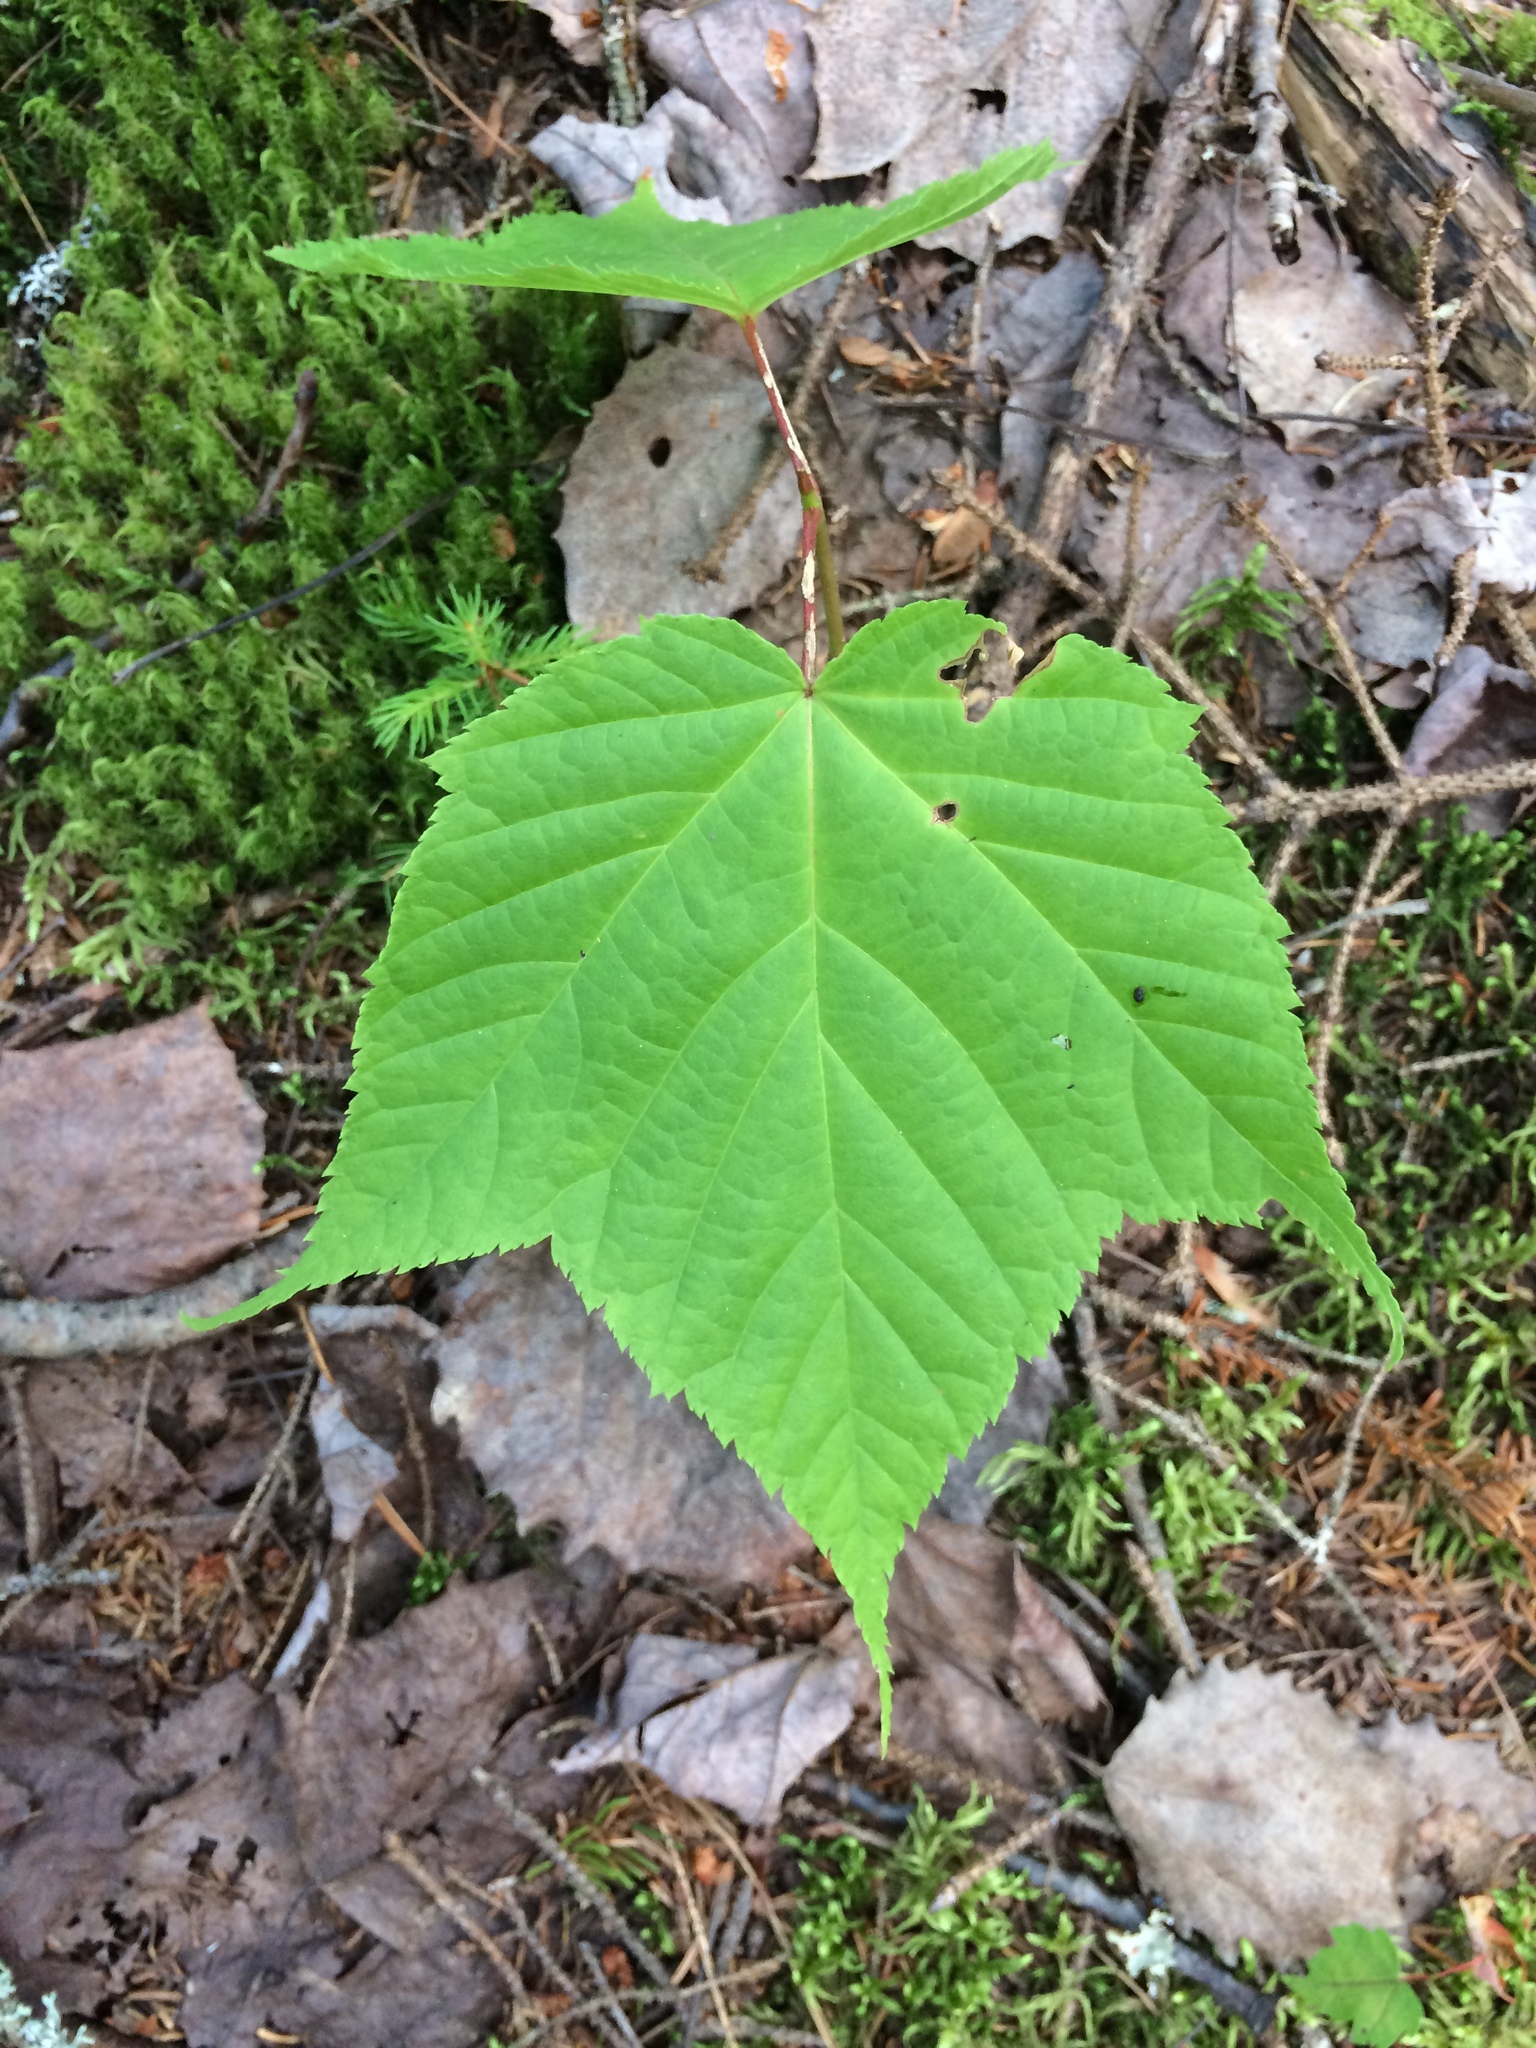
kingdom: Plantae
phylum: Tracheophyta
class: Magnoliopsida
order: Sapindales
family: Sapindaceae
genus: Acer
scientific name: Acer pensylvanicum
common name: Moosewood
